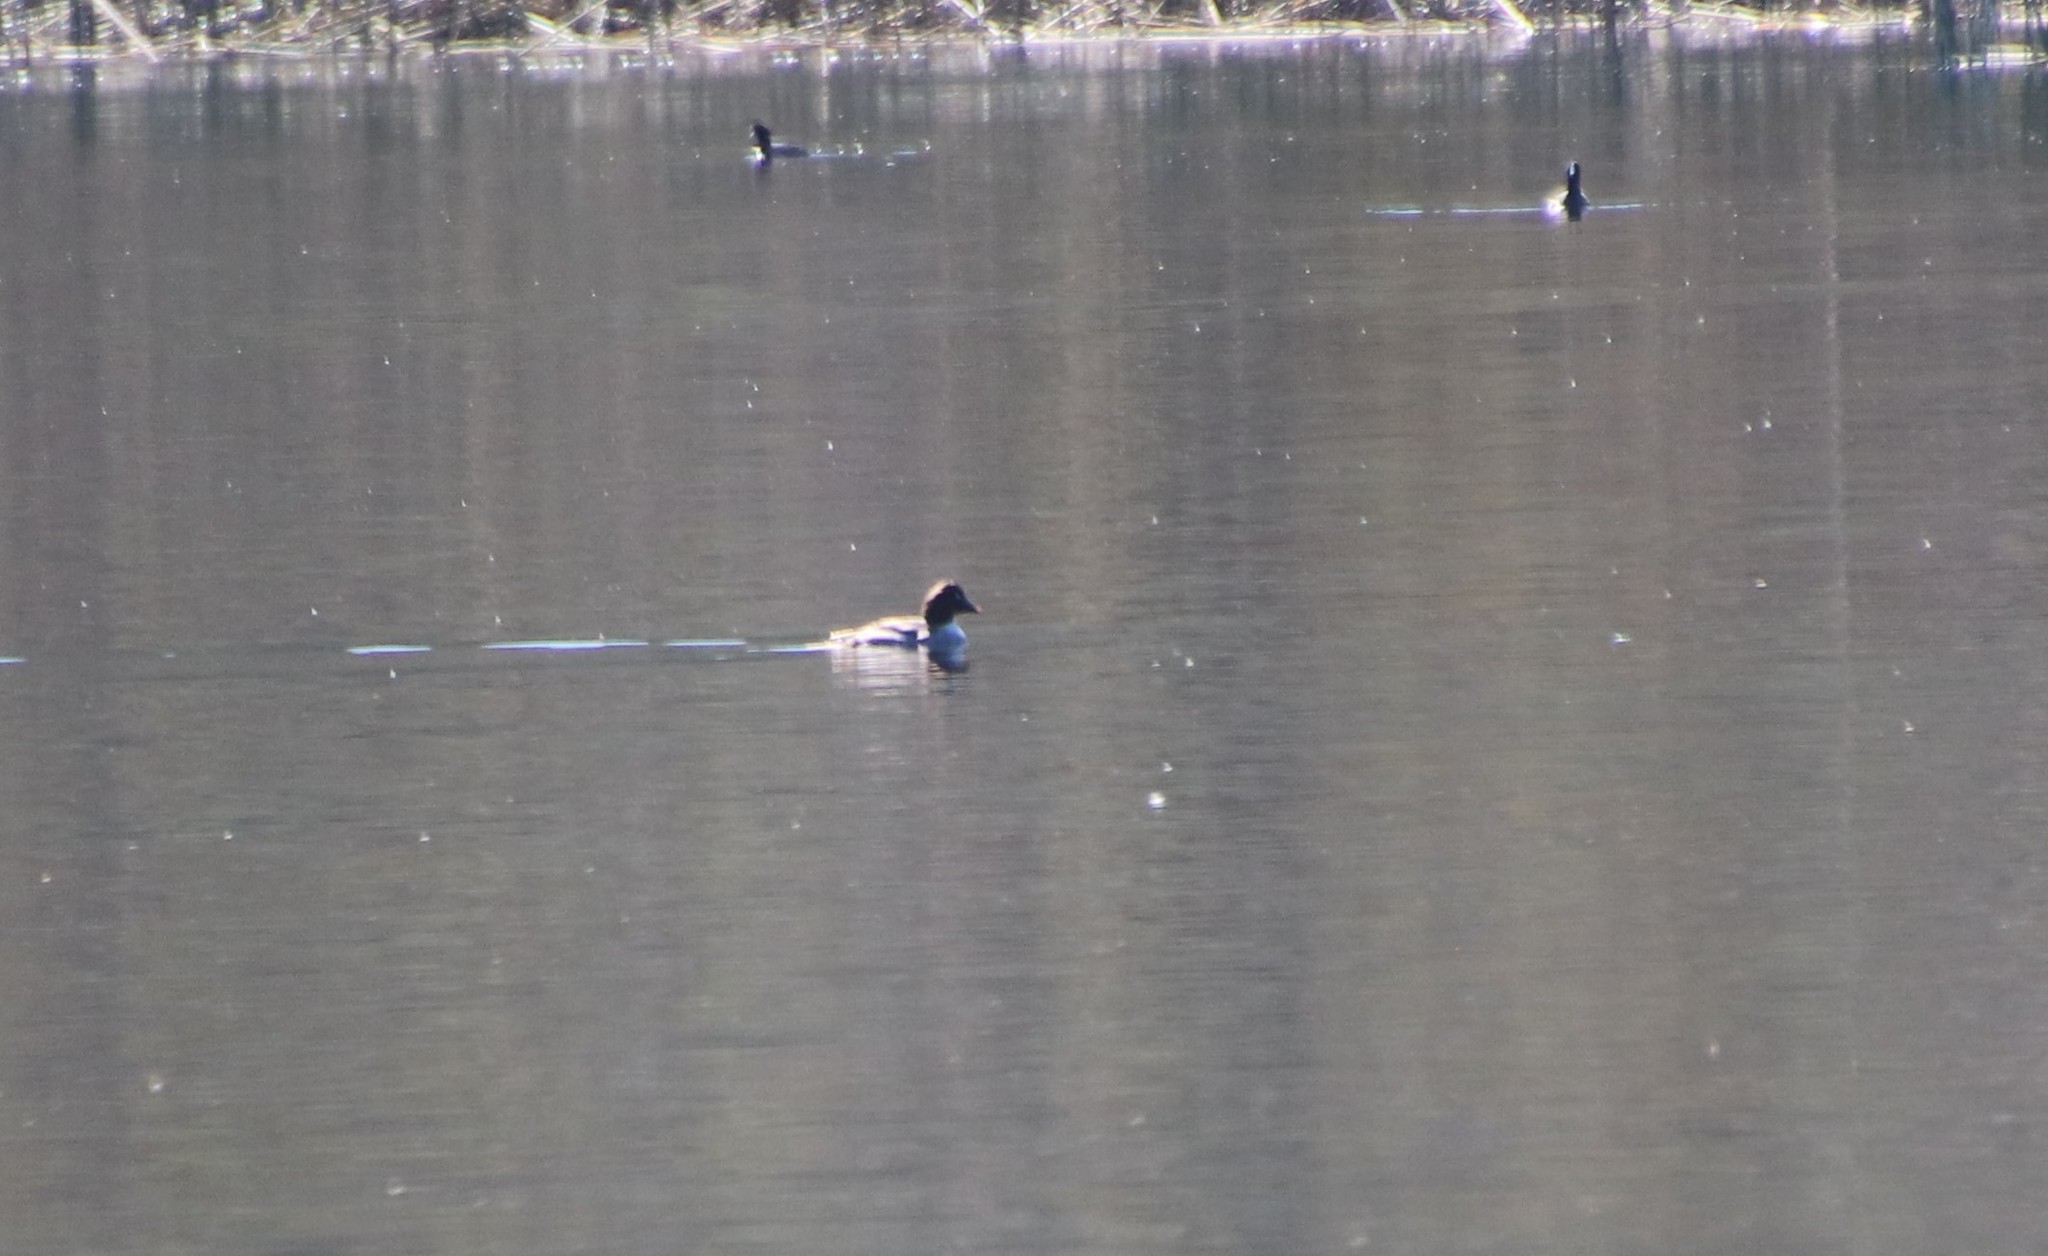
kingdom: Animalia
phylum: Chordata
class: Aves
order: Anseriformes
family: Anatidae
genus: Bucephala
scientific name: Bucephala clangula
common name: Common goldeneye
